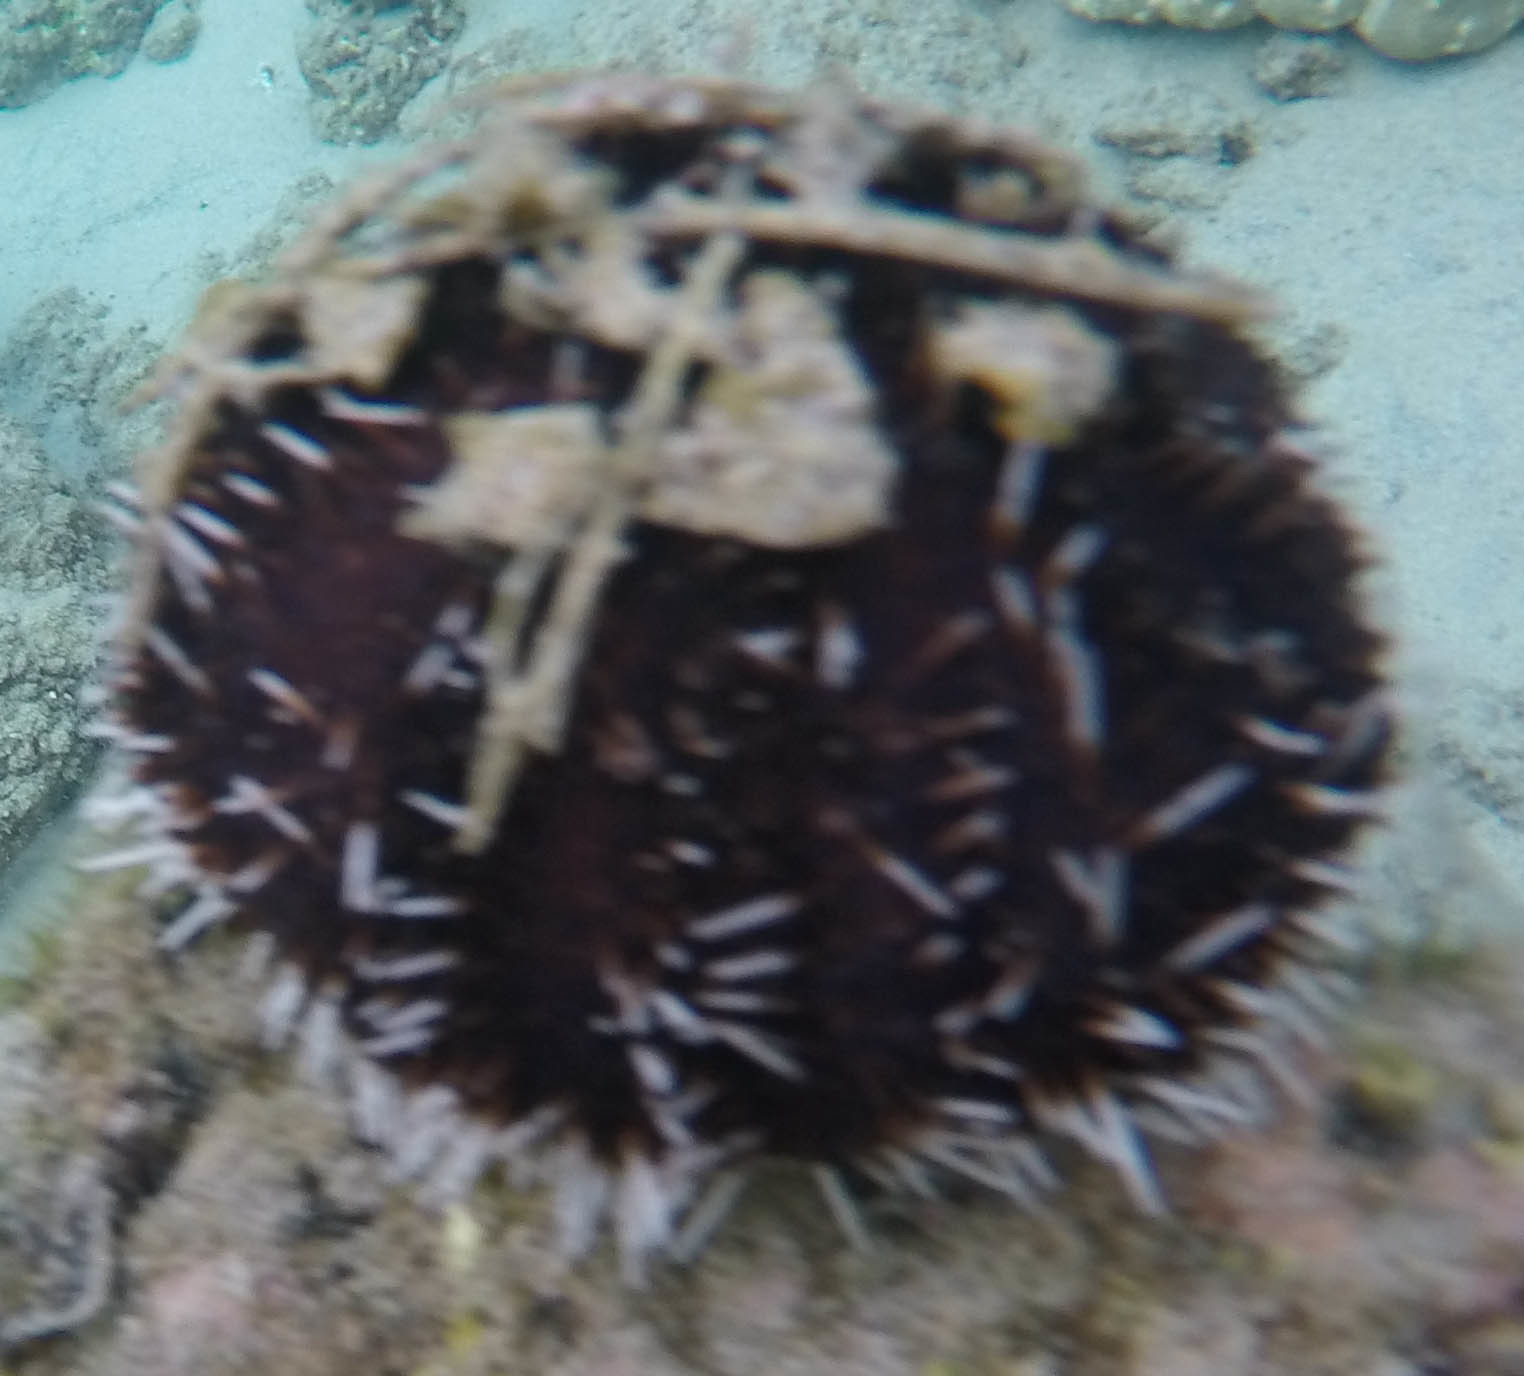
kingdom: Animalia
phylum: Echinodermata
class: Echinoidea
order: Camarodonta
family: Toxopneustidae
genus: Tripneustes
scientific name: Tripneustes gratilla
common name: Bischofsmützenseeigel
